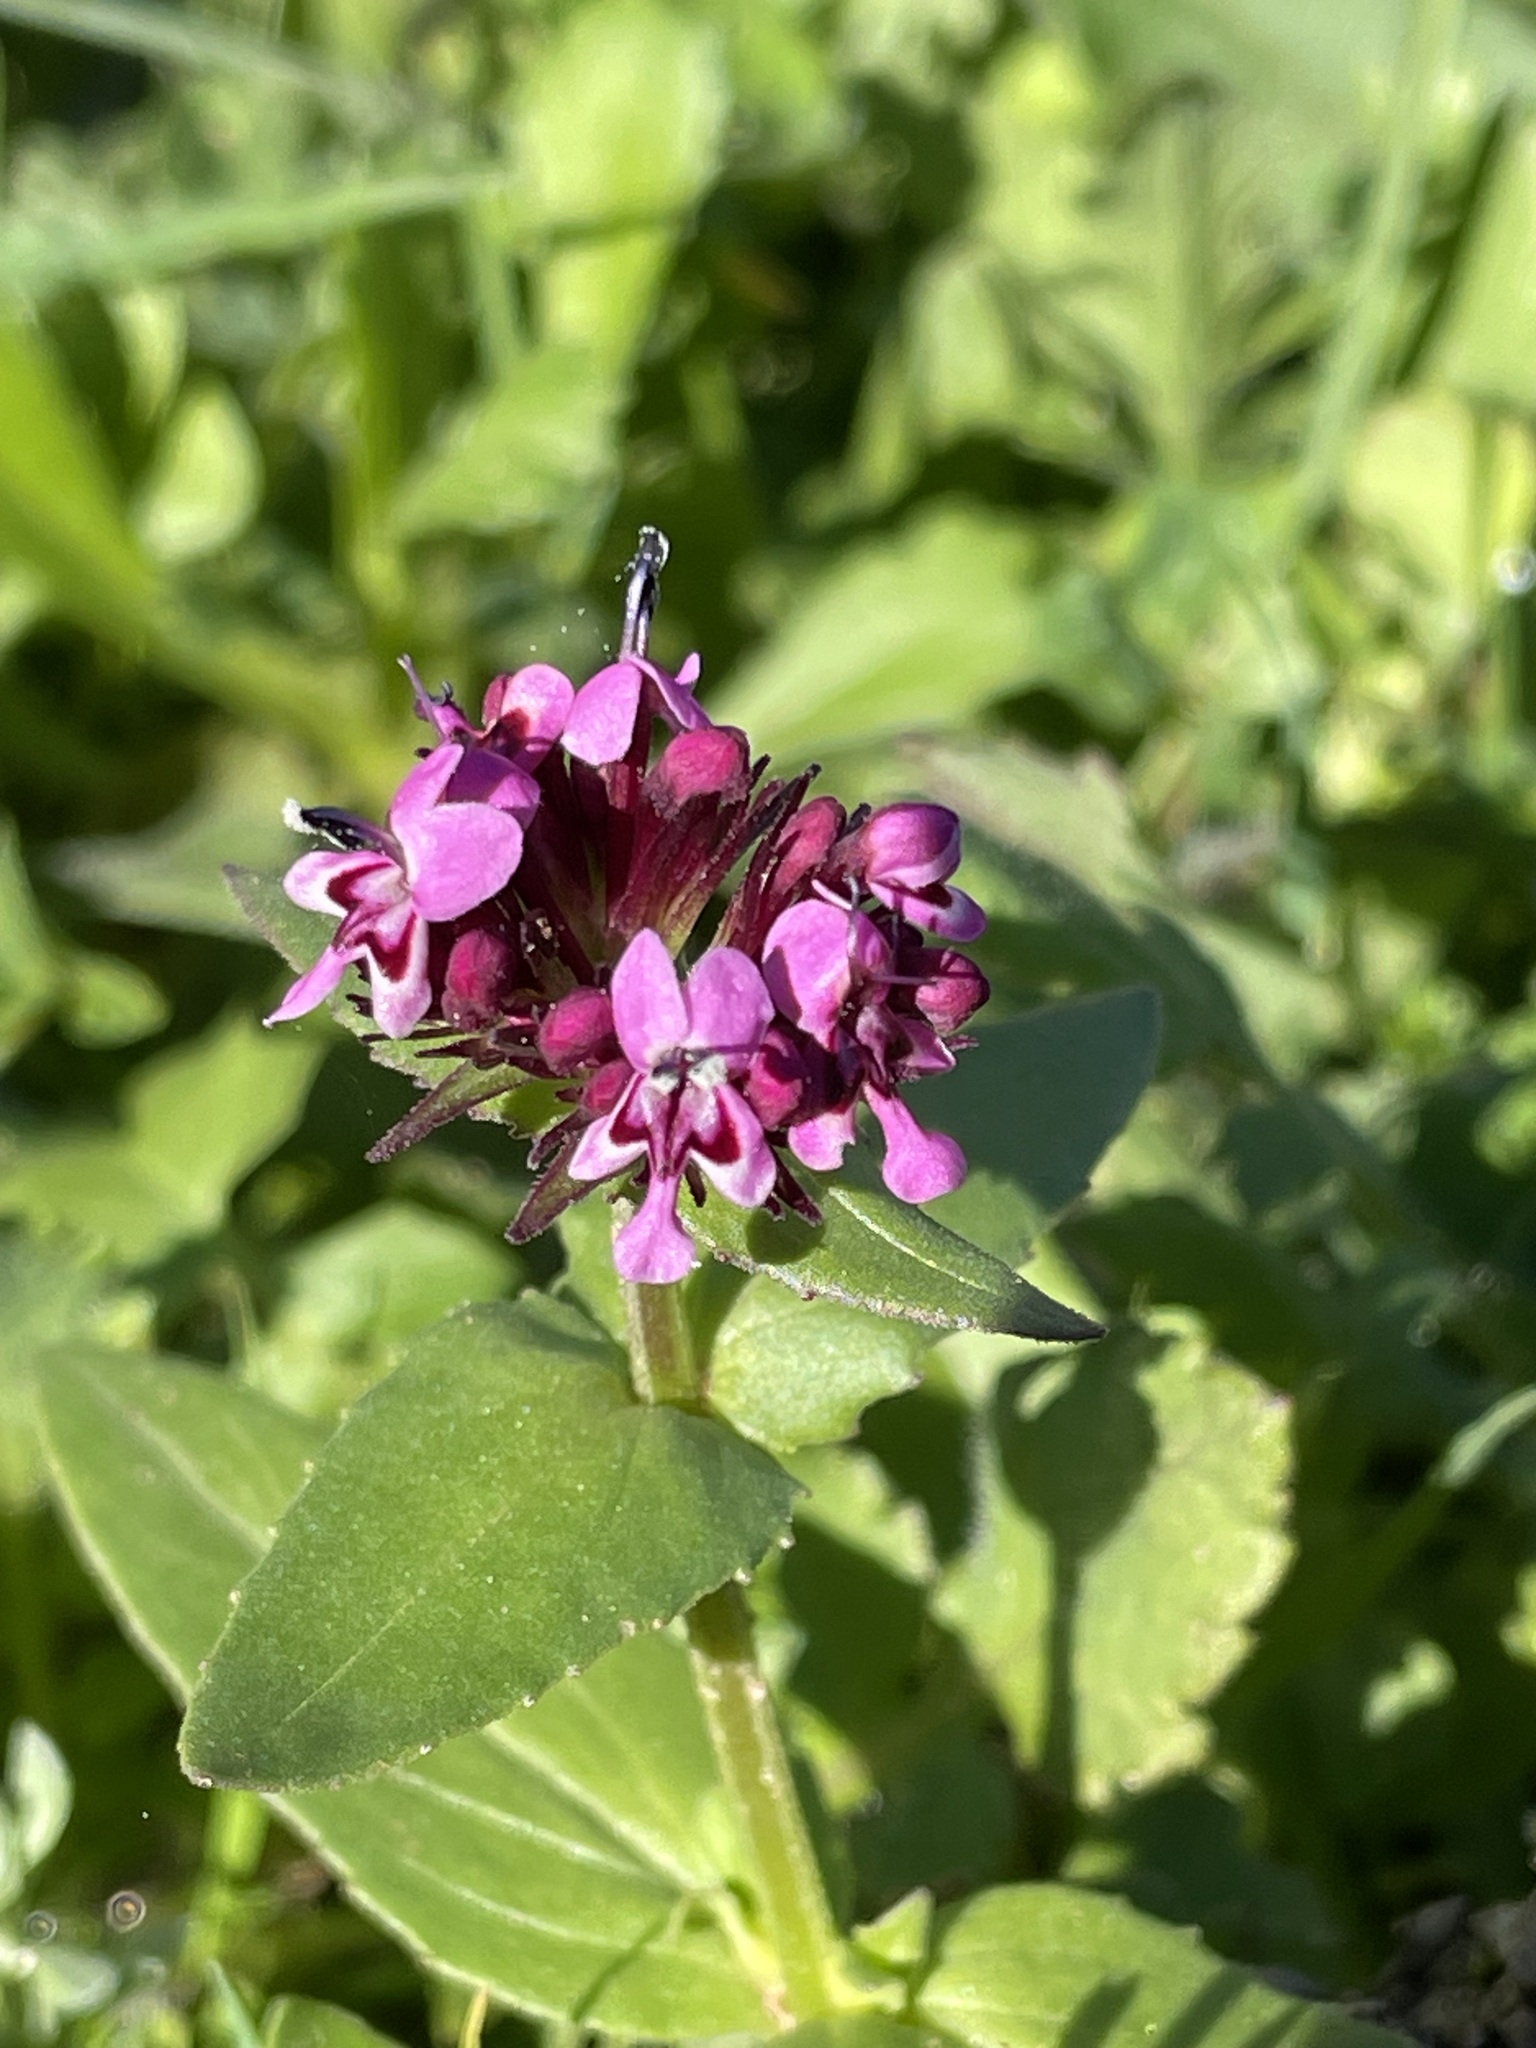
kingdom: Plantae
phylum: Tracheophyta
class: Magnoliopsida
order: Dipsacales
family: Caprifoliaceae
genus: Fedia
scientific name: Fedia cornucopiae
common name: Horn-of-plenty
